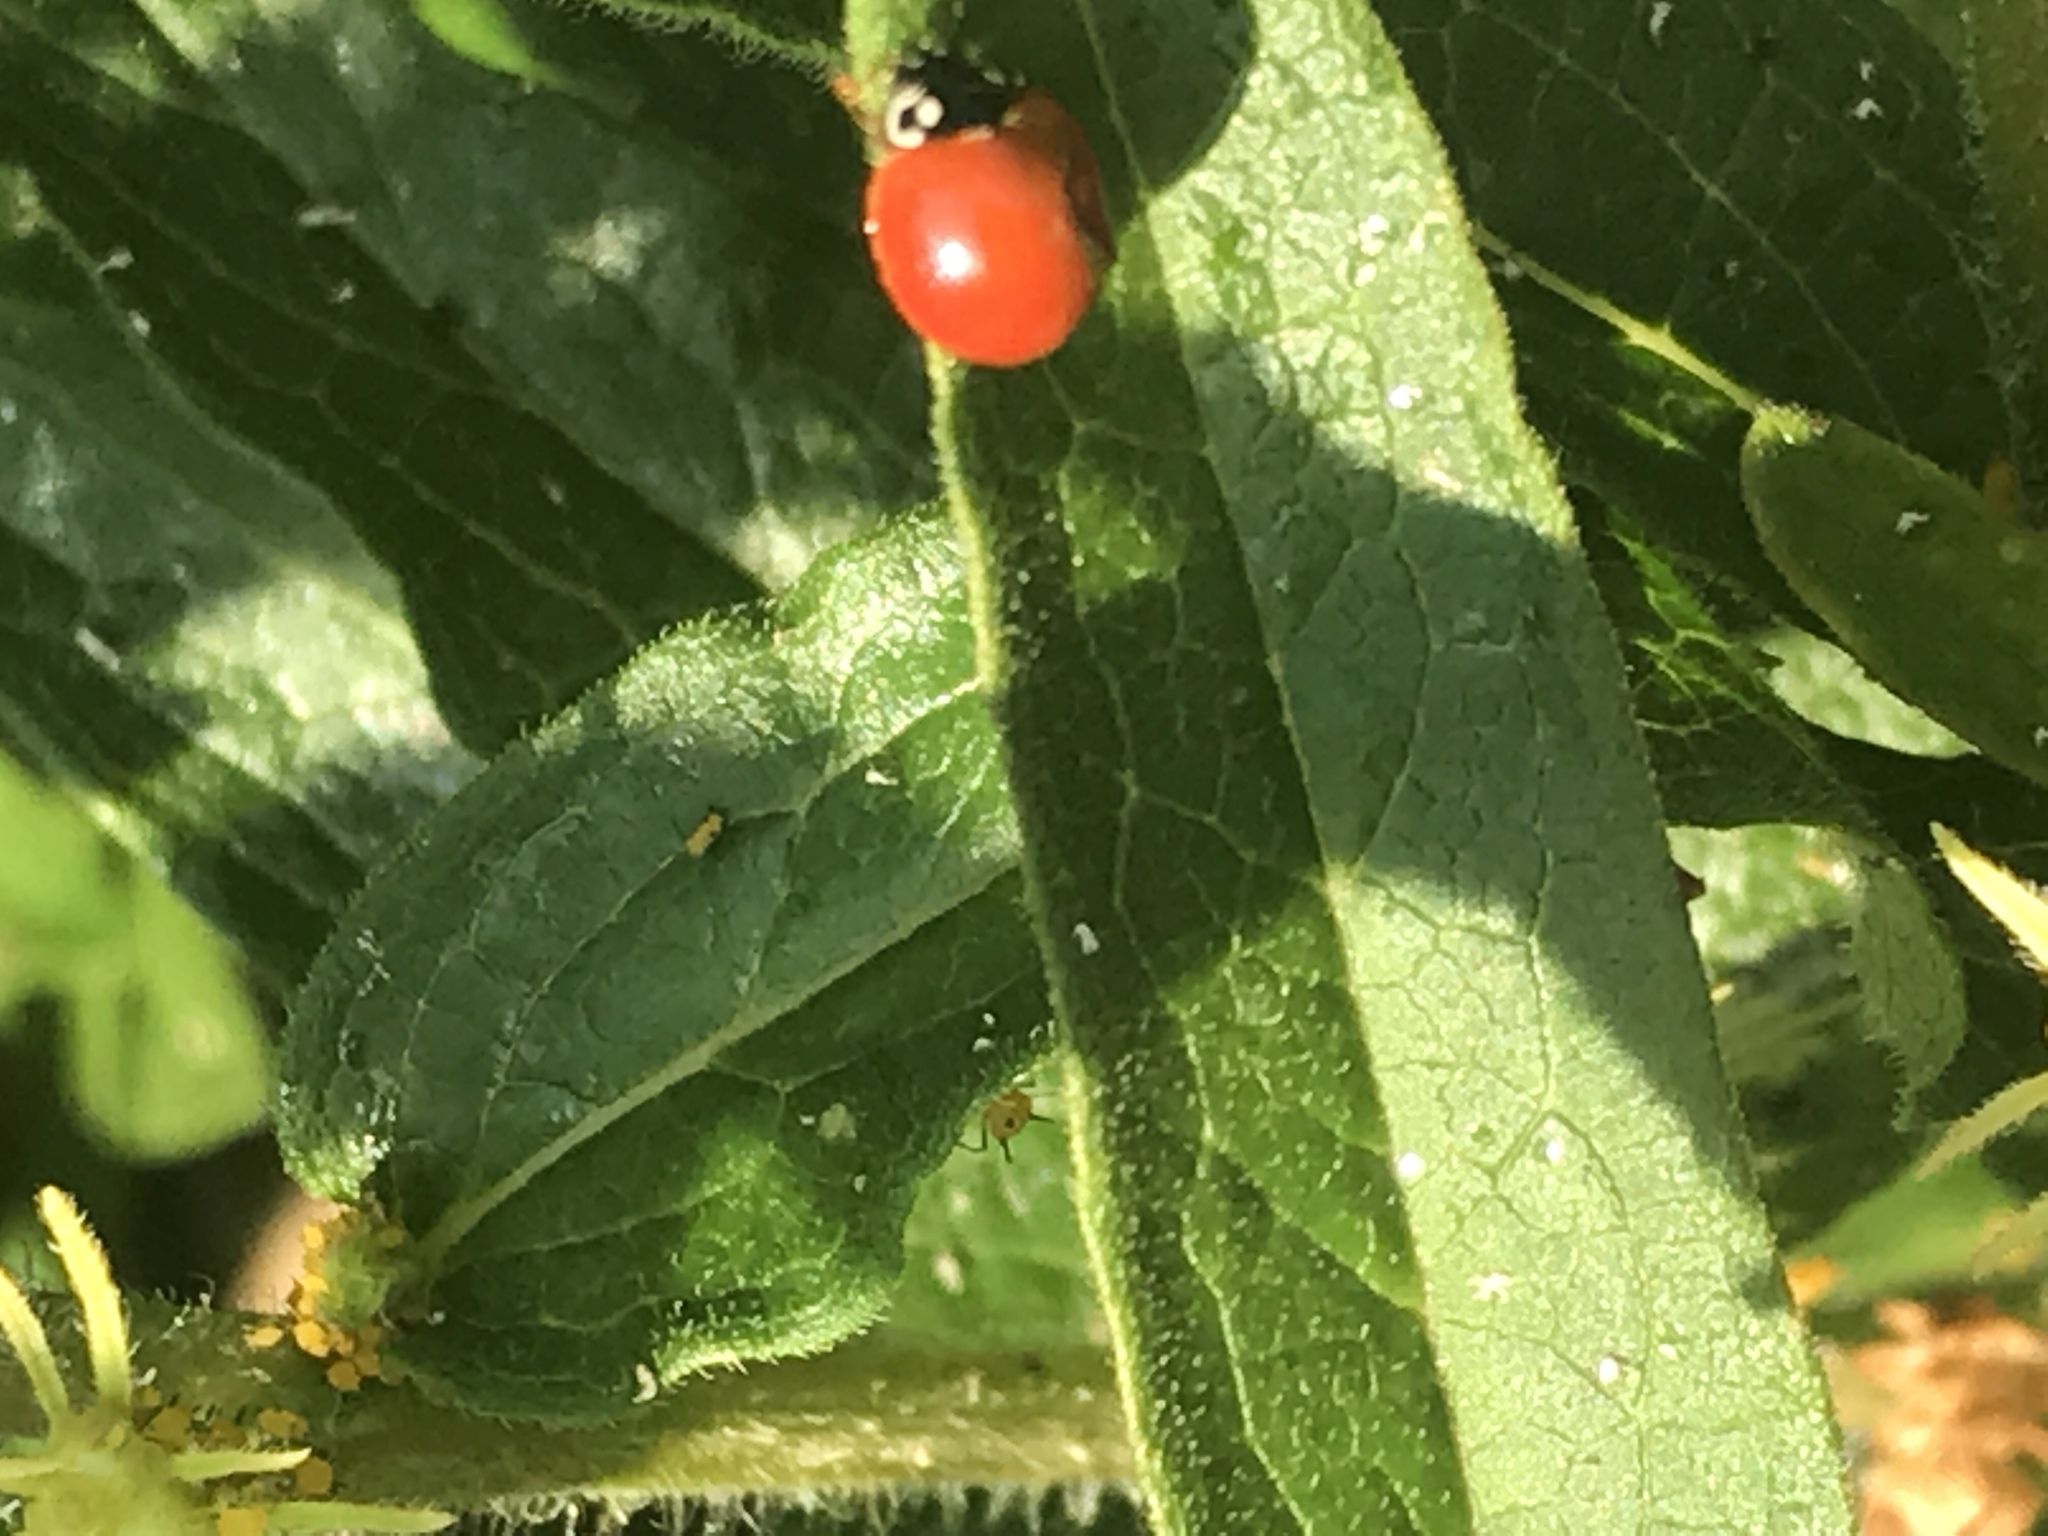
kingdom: Animalia
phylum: Arthropoda
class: Insecta
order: Coleoptera
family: Coccinellidae
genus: Cycloneda
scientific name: Cycloneda sanguinea
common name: Ladybird beetle
